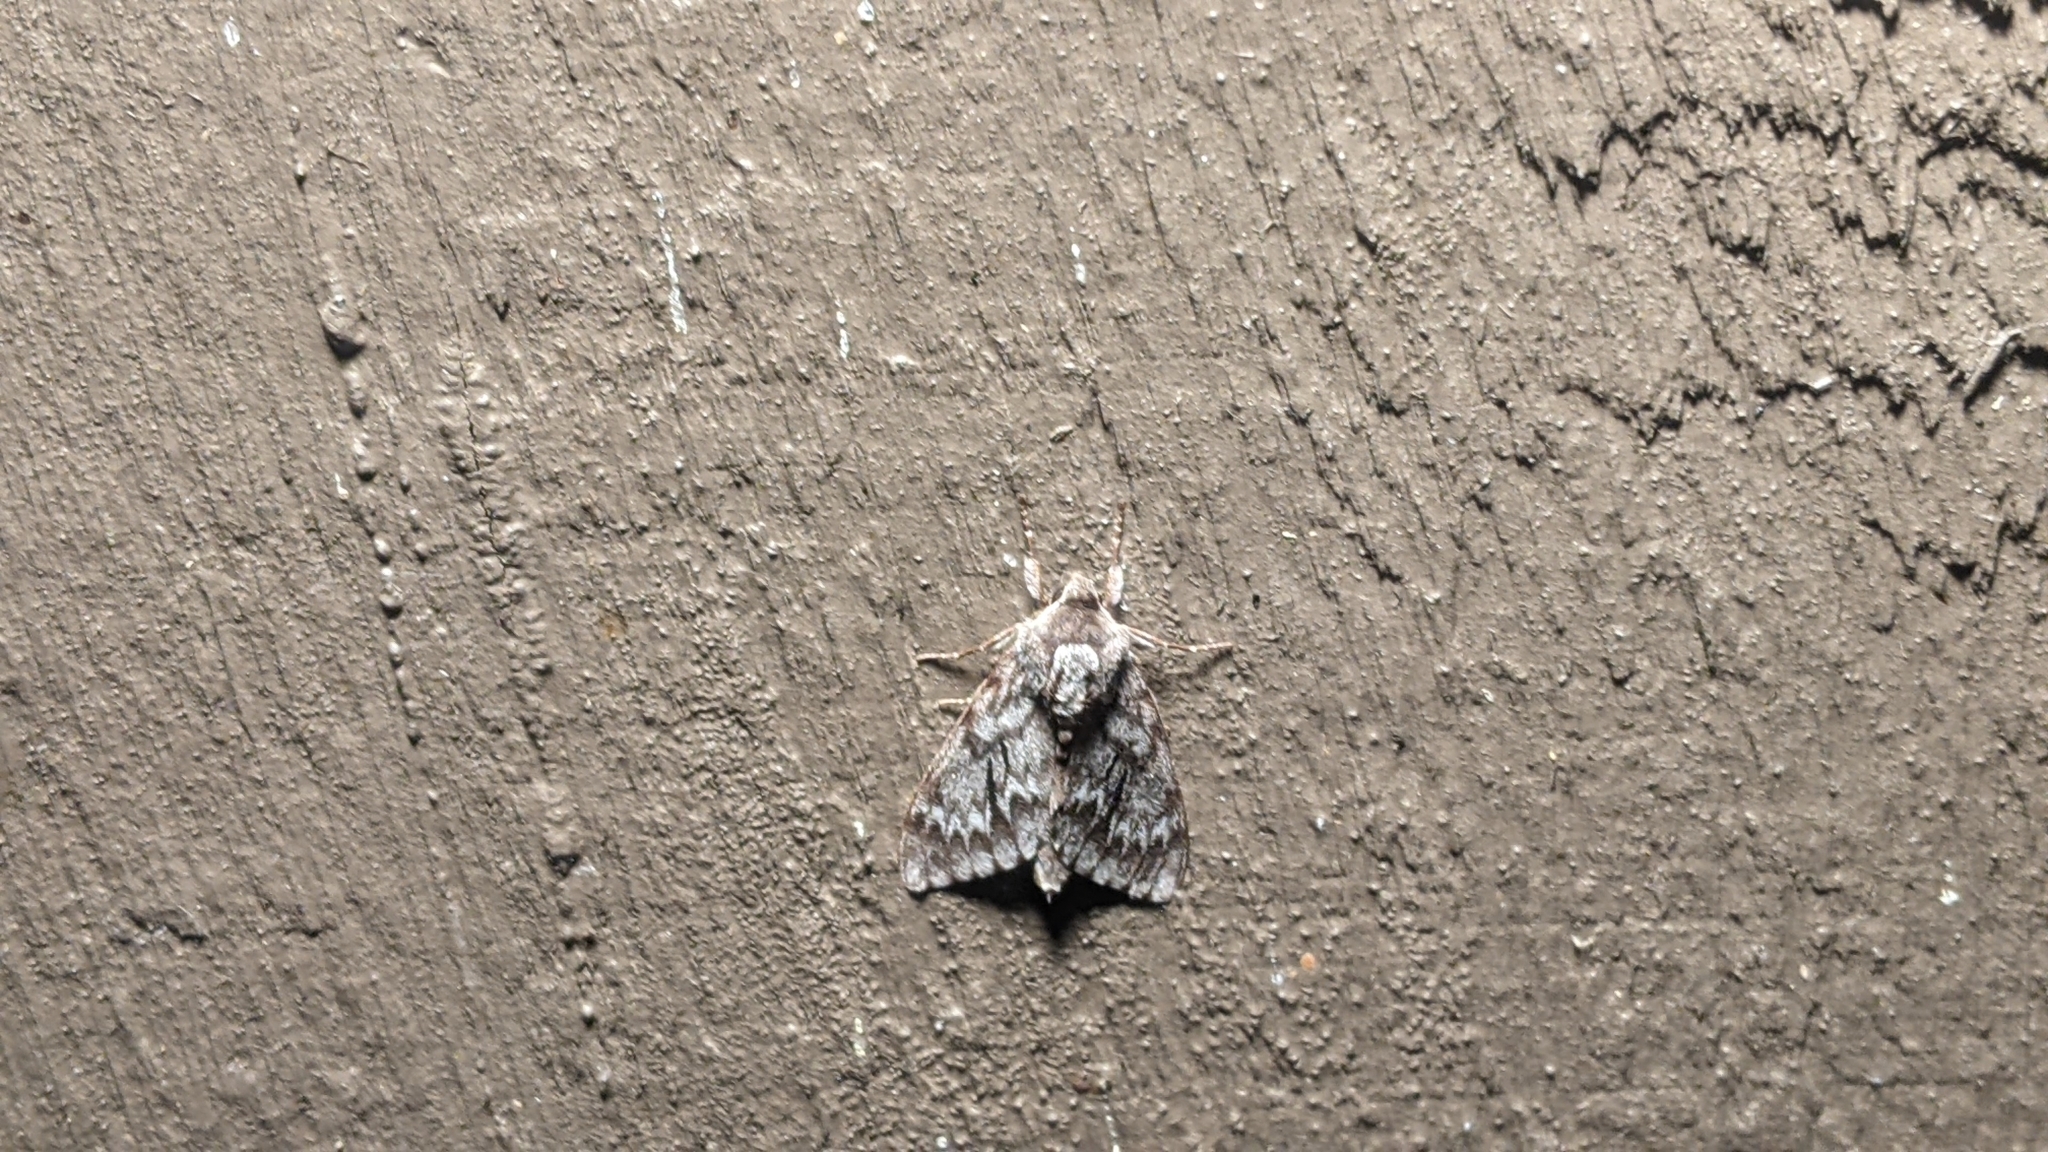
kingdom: Animalia
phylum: Arthropoda
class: Insecta
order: Lepidoptera
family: Sphingidae
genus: Lapara
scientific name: Lapara bombycoides
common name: Northern pine sphinx
